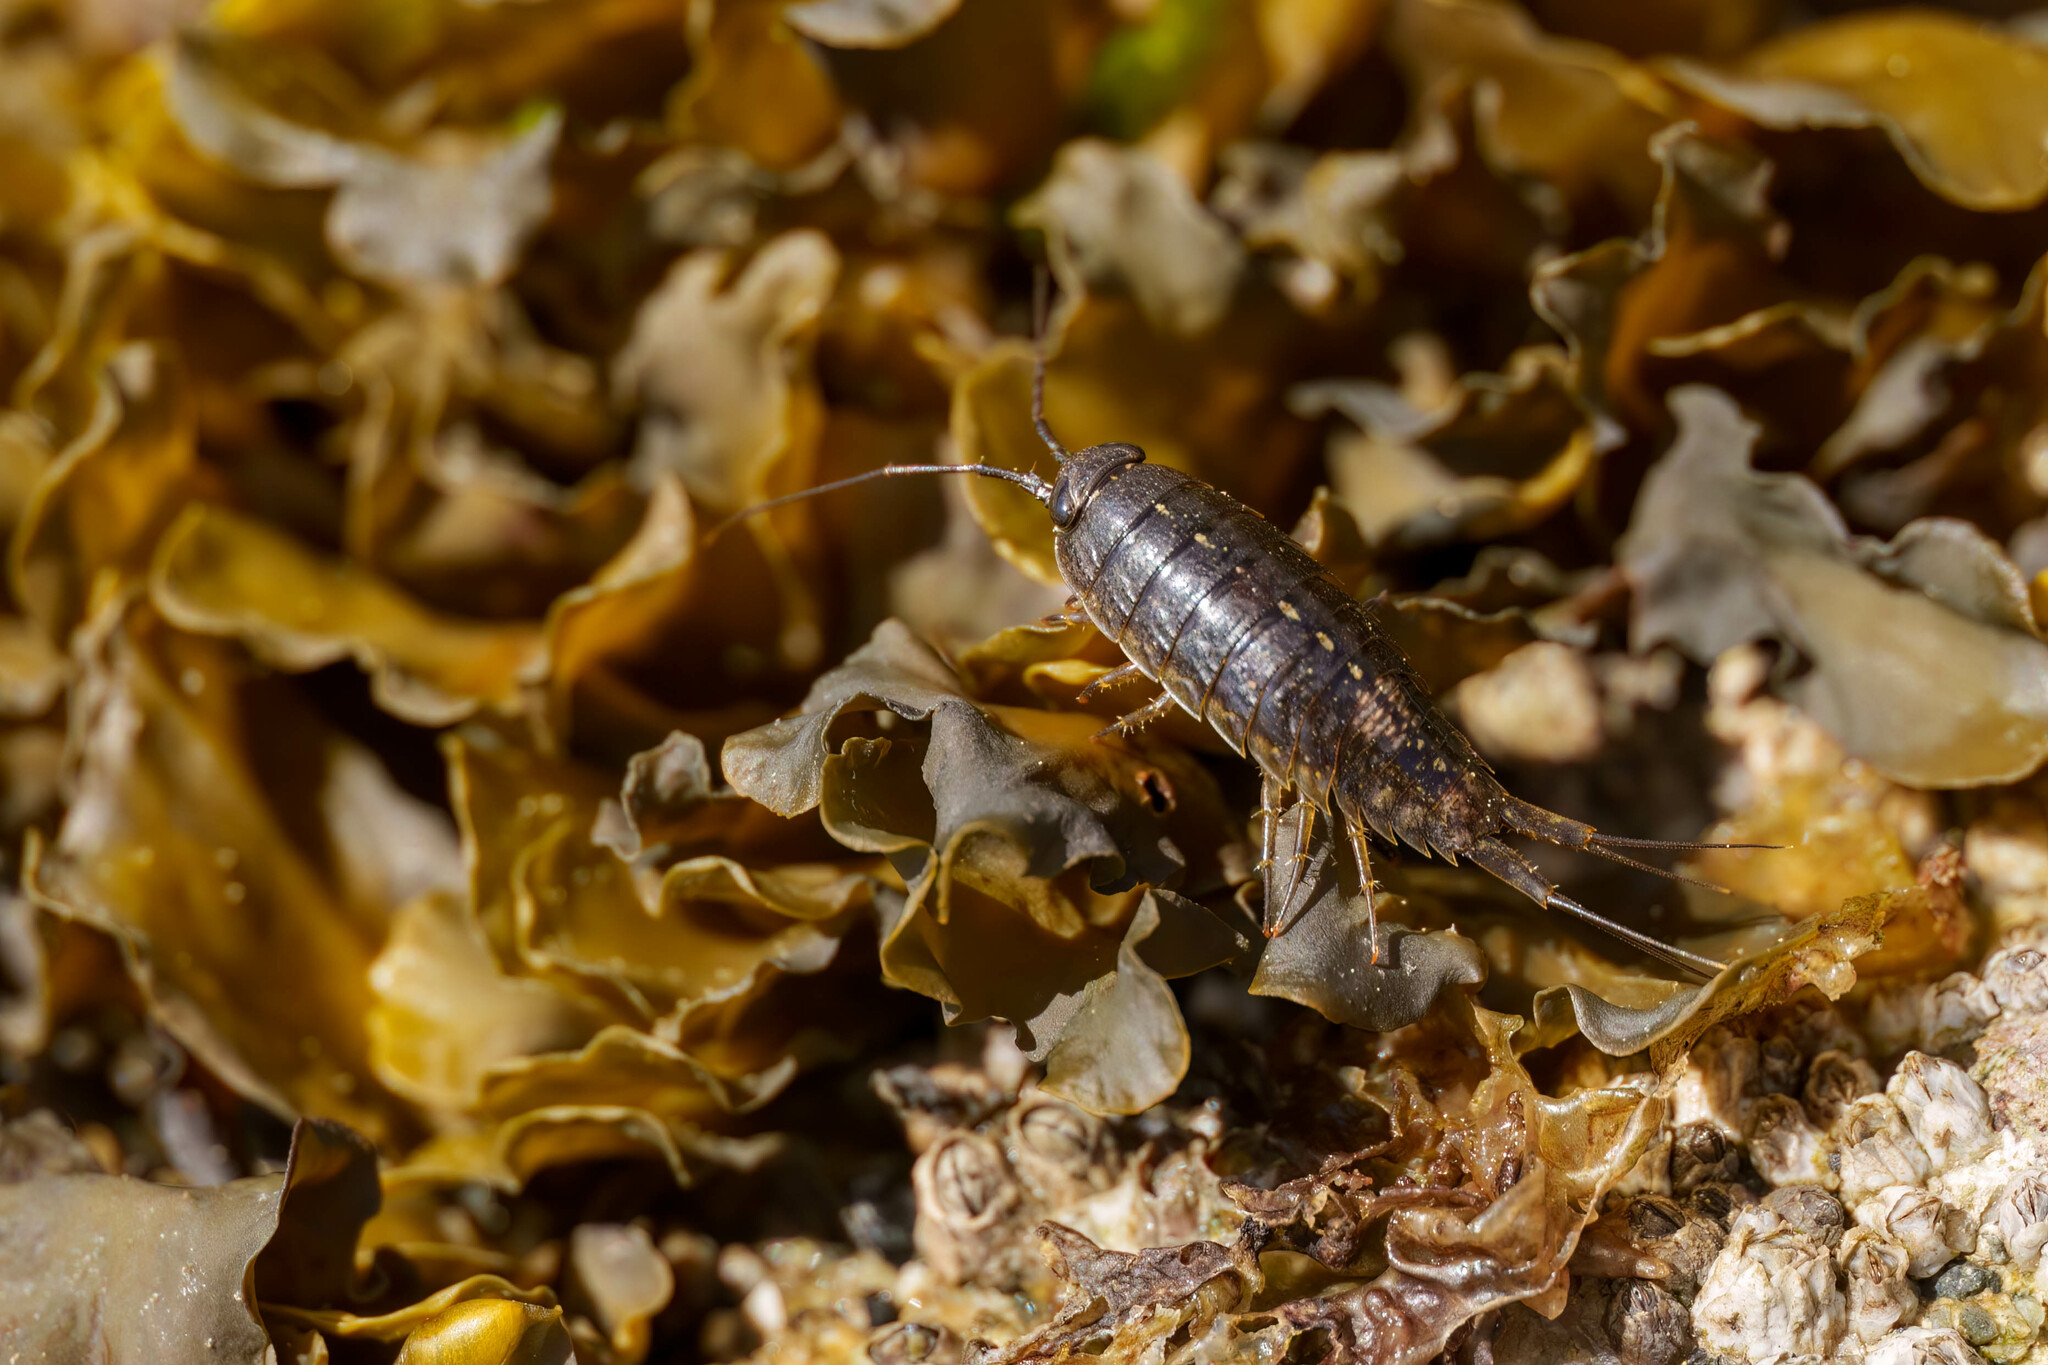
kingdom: Animalia
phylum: Arthropoda
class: Malacostraca
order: Isopoda
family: Ligiidae
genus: Ligia
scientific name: Ligia occidentalis
